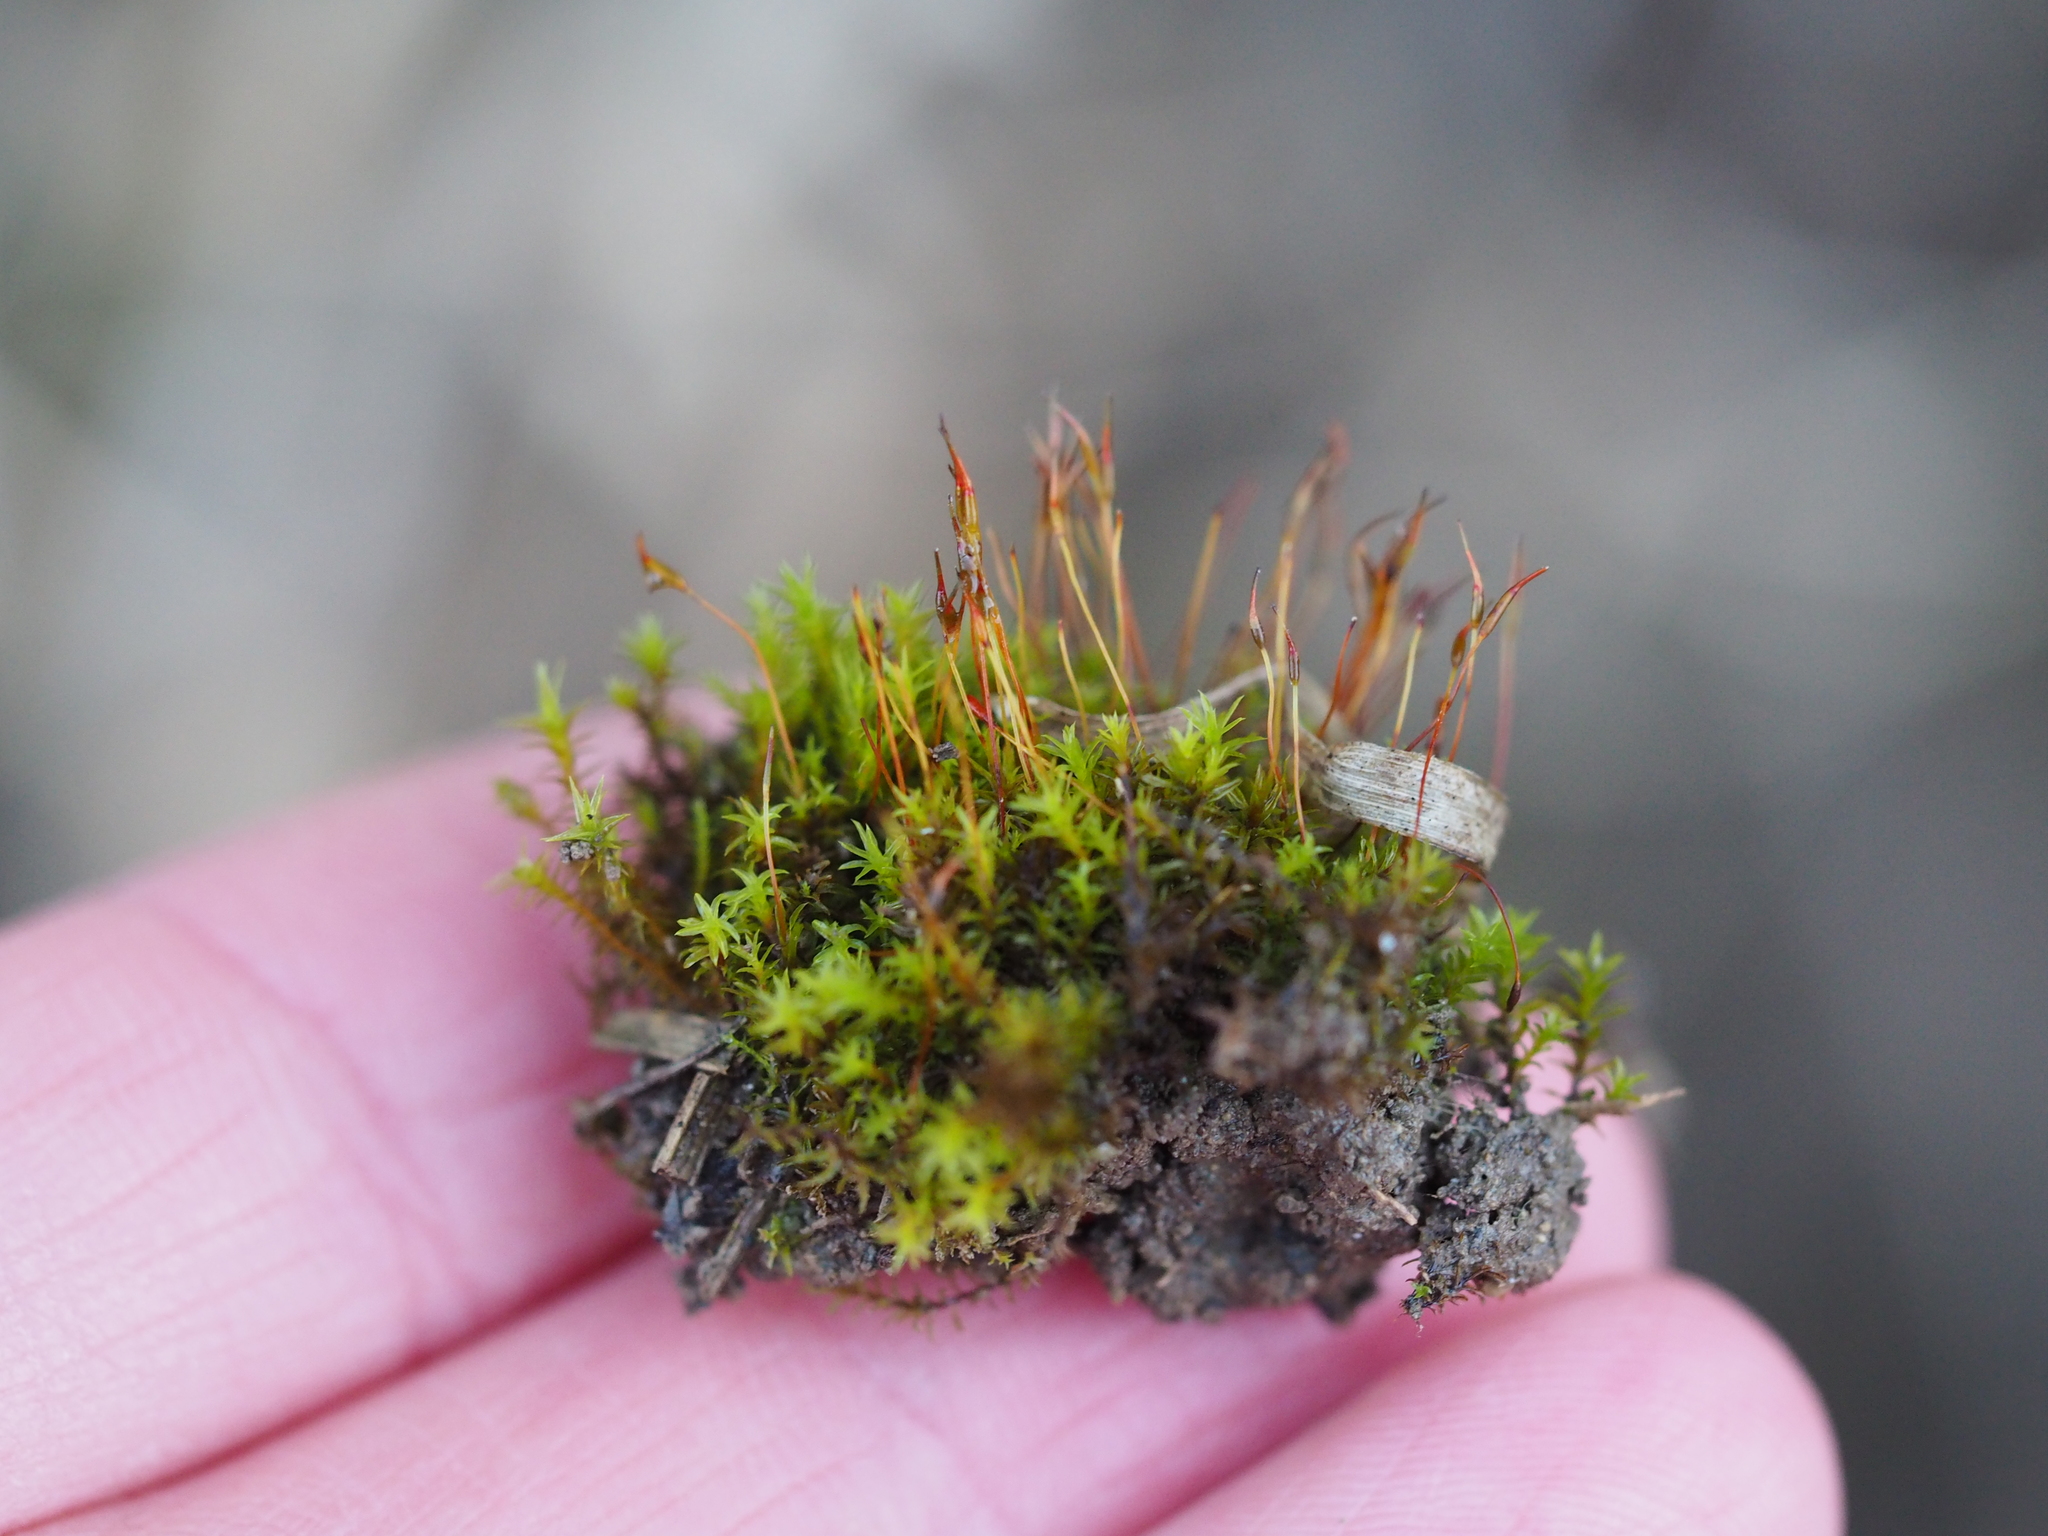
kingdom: Plantae
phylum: Bryophyta
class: Bryopsida
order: Pottiales
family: Pottiaceae
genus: Barbula
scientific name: Barbula unguiculata
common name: Prickly beard moss
